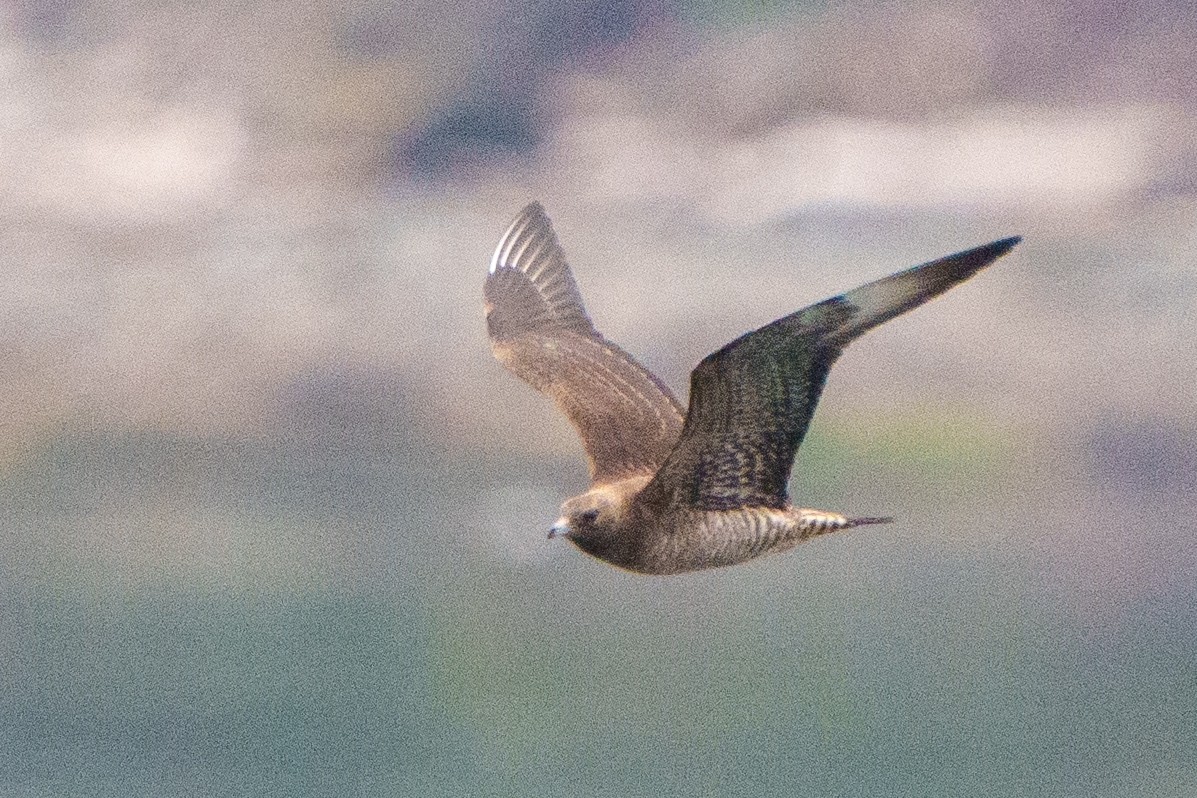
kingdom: Animalia
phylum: Chordata
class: Aves
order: Charadriiformes
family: Stercorariidae
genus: Stercorarius
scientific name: Stercorarius parasiticus
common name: Parasitic jaeger
